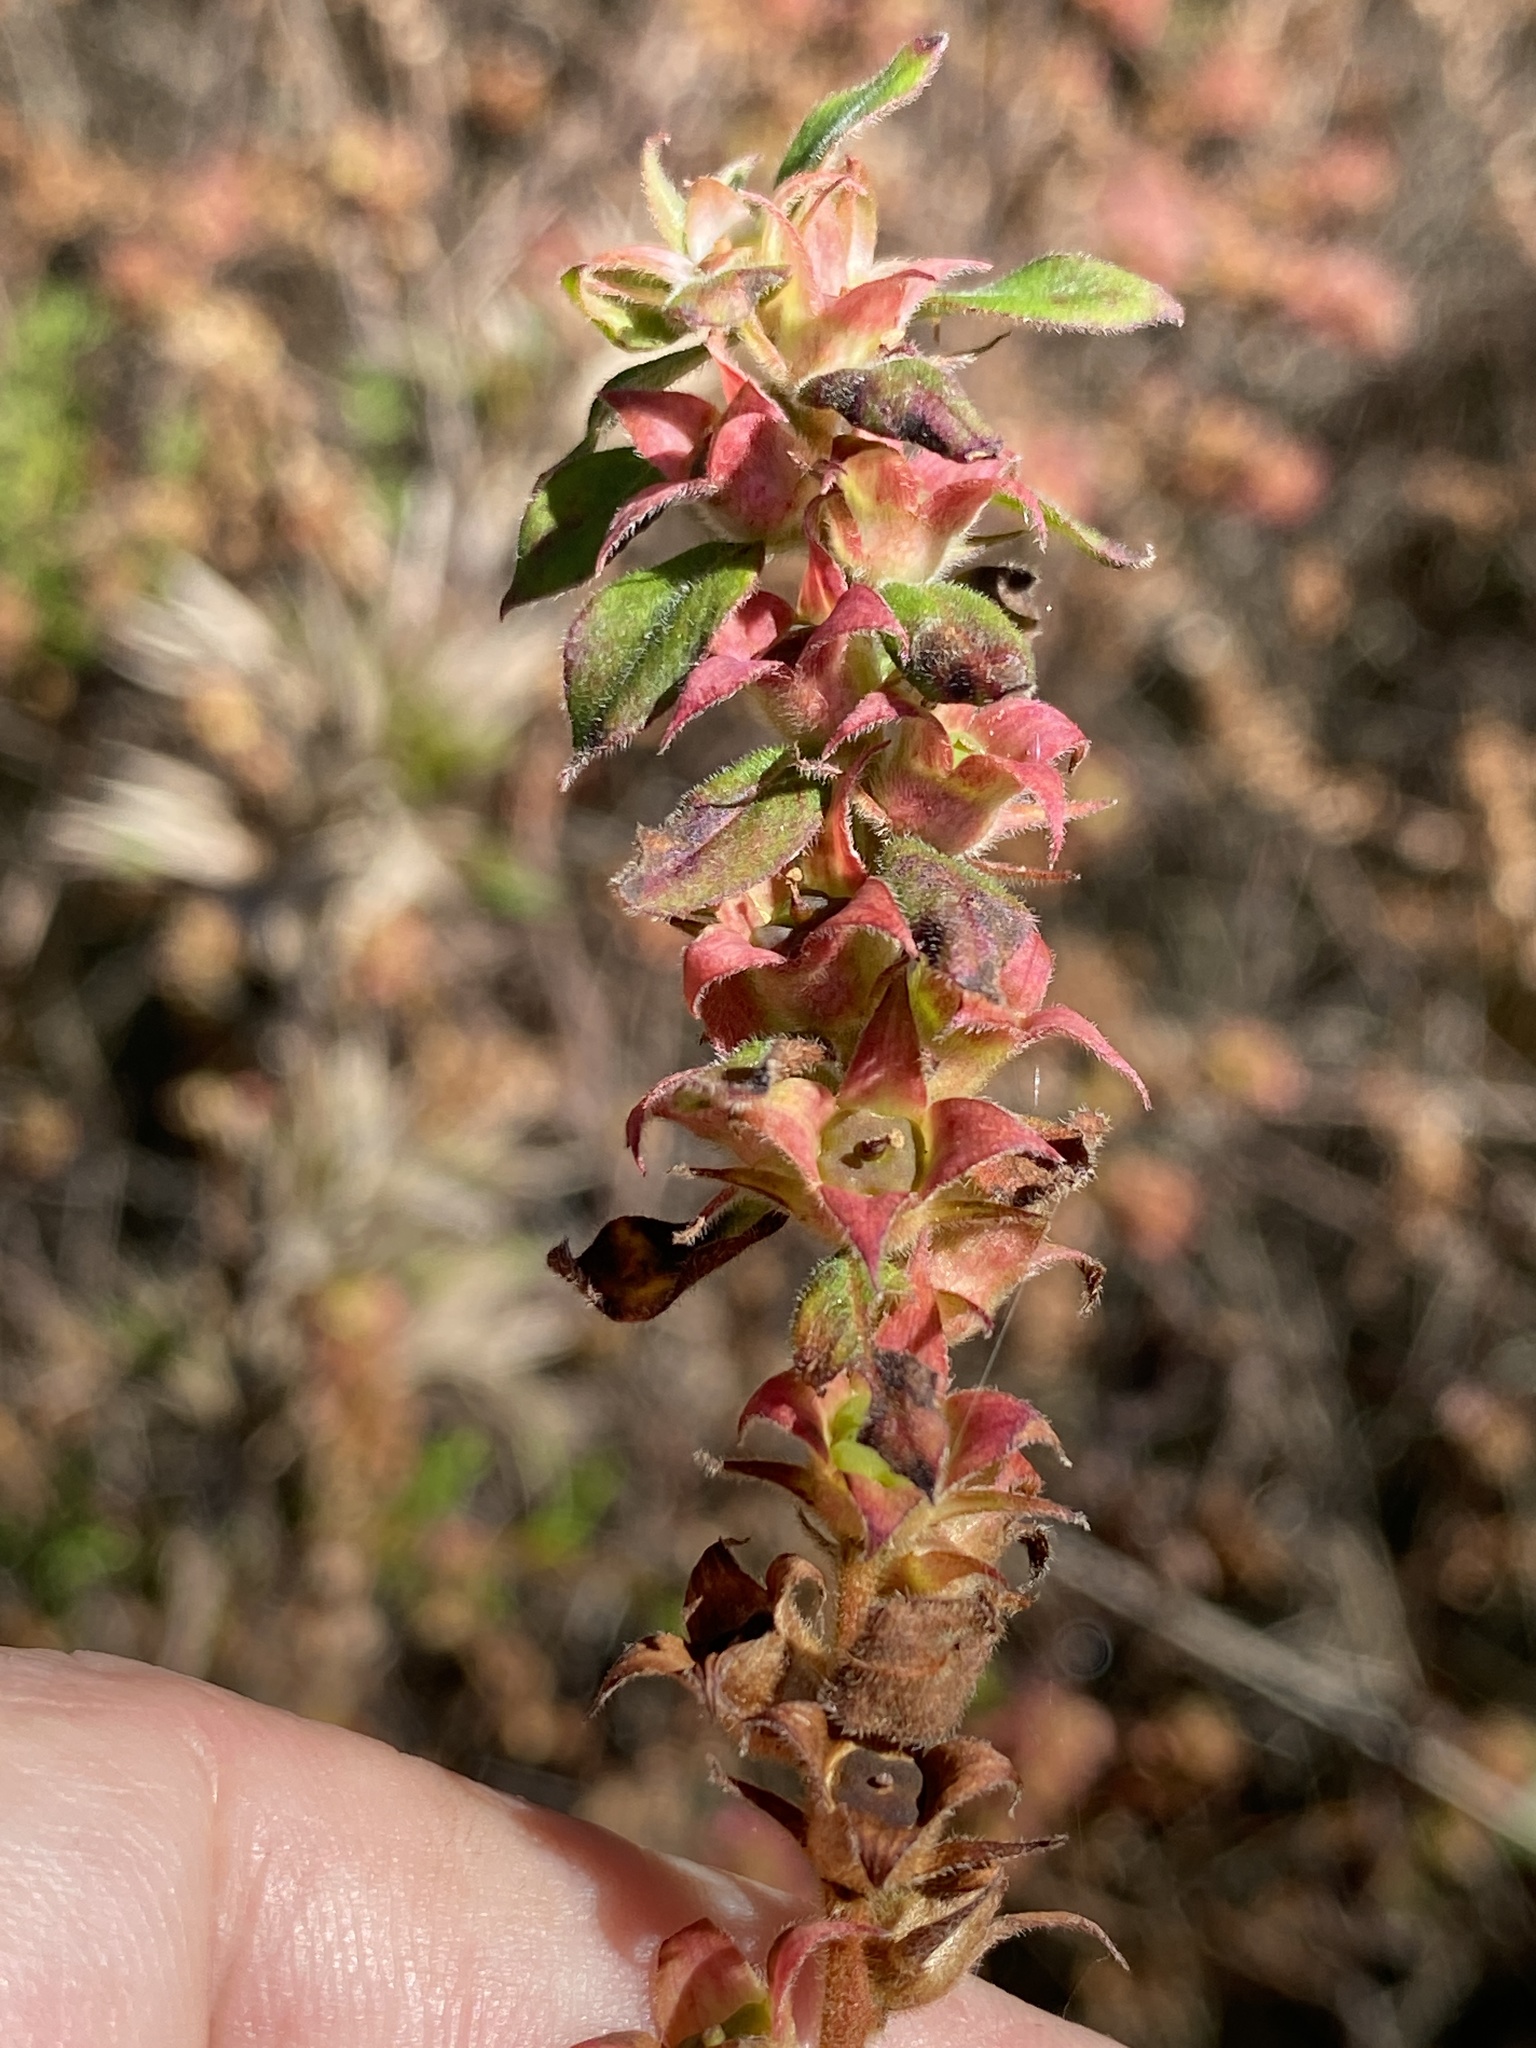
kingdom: Plantae
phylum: Tracheophyta
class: Magnoliopsida
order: Myrtales
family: Onagraceae
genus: Ludwigia
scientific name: Ludwigia pilosa
